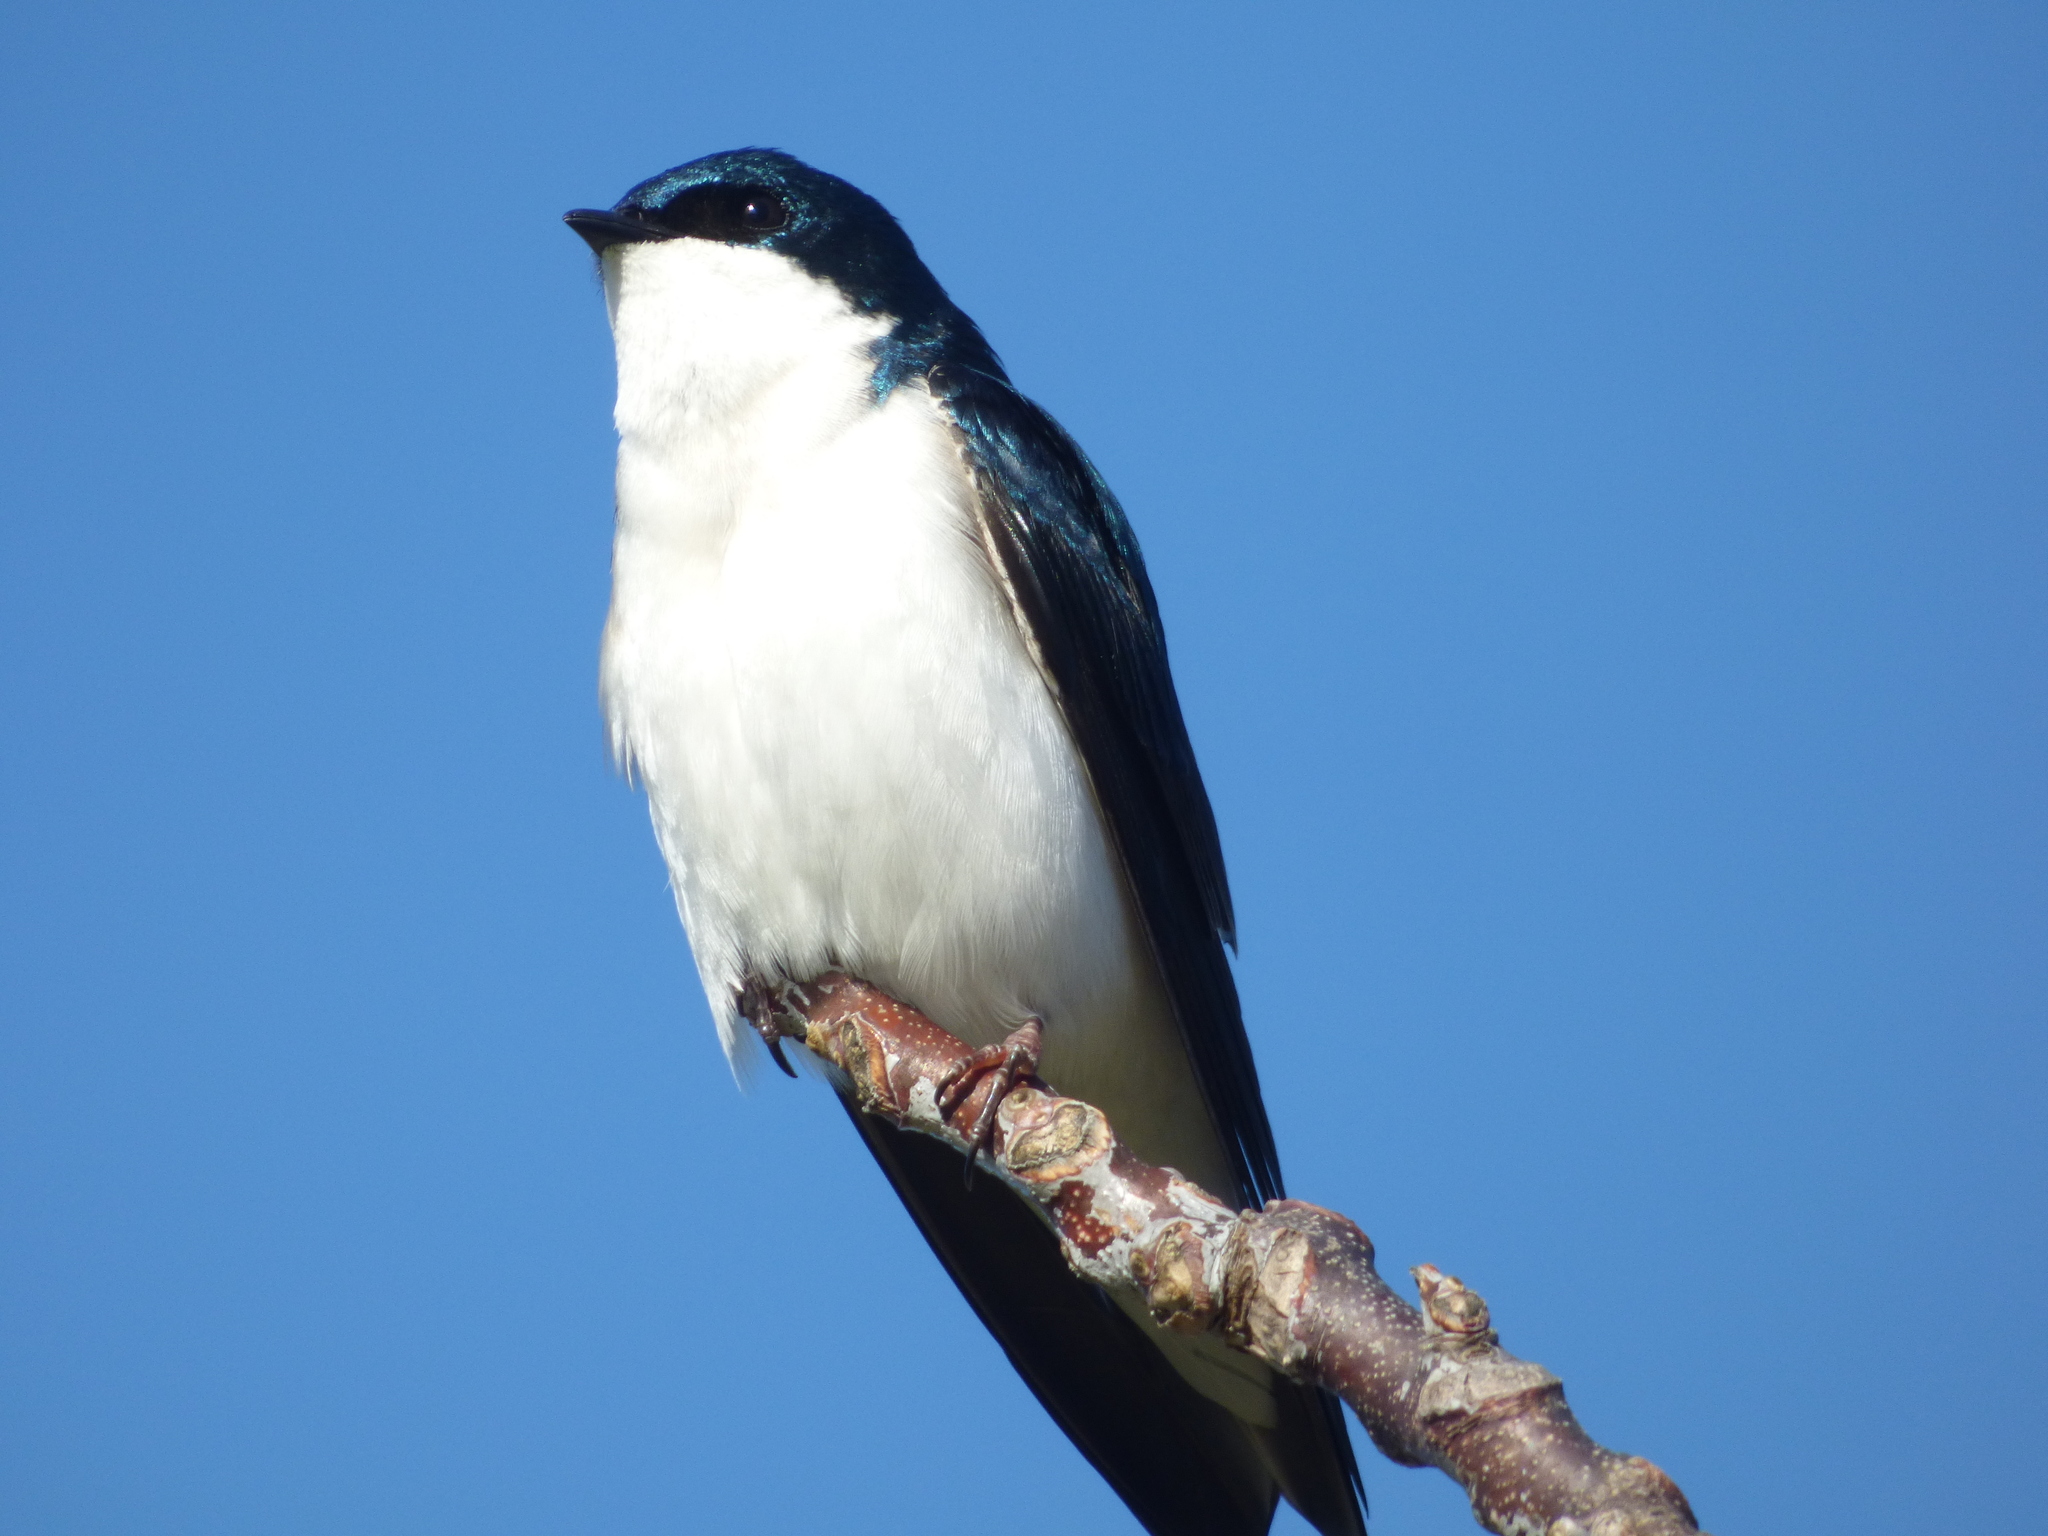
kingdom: Animalia
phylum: Chordata
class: Aves
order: Passeriformes
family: Hirundinidae
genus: Tachycineta
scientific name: Tachycineta bicolor
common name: Tree swallow
